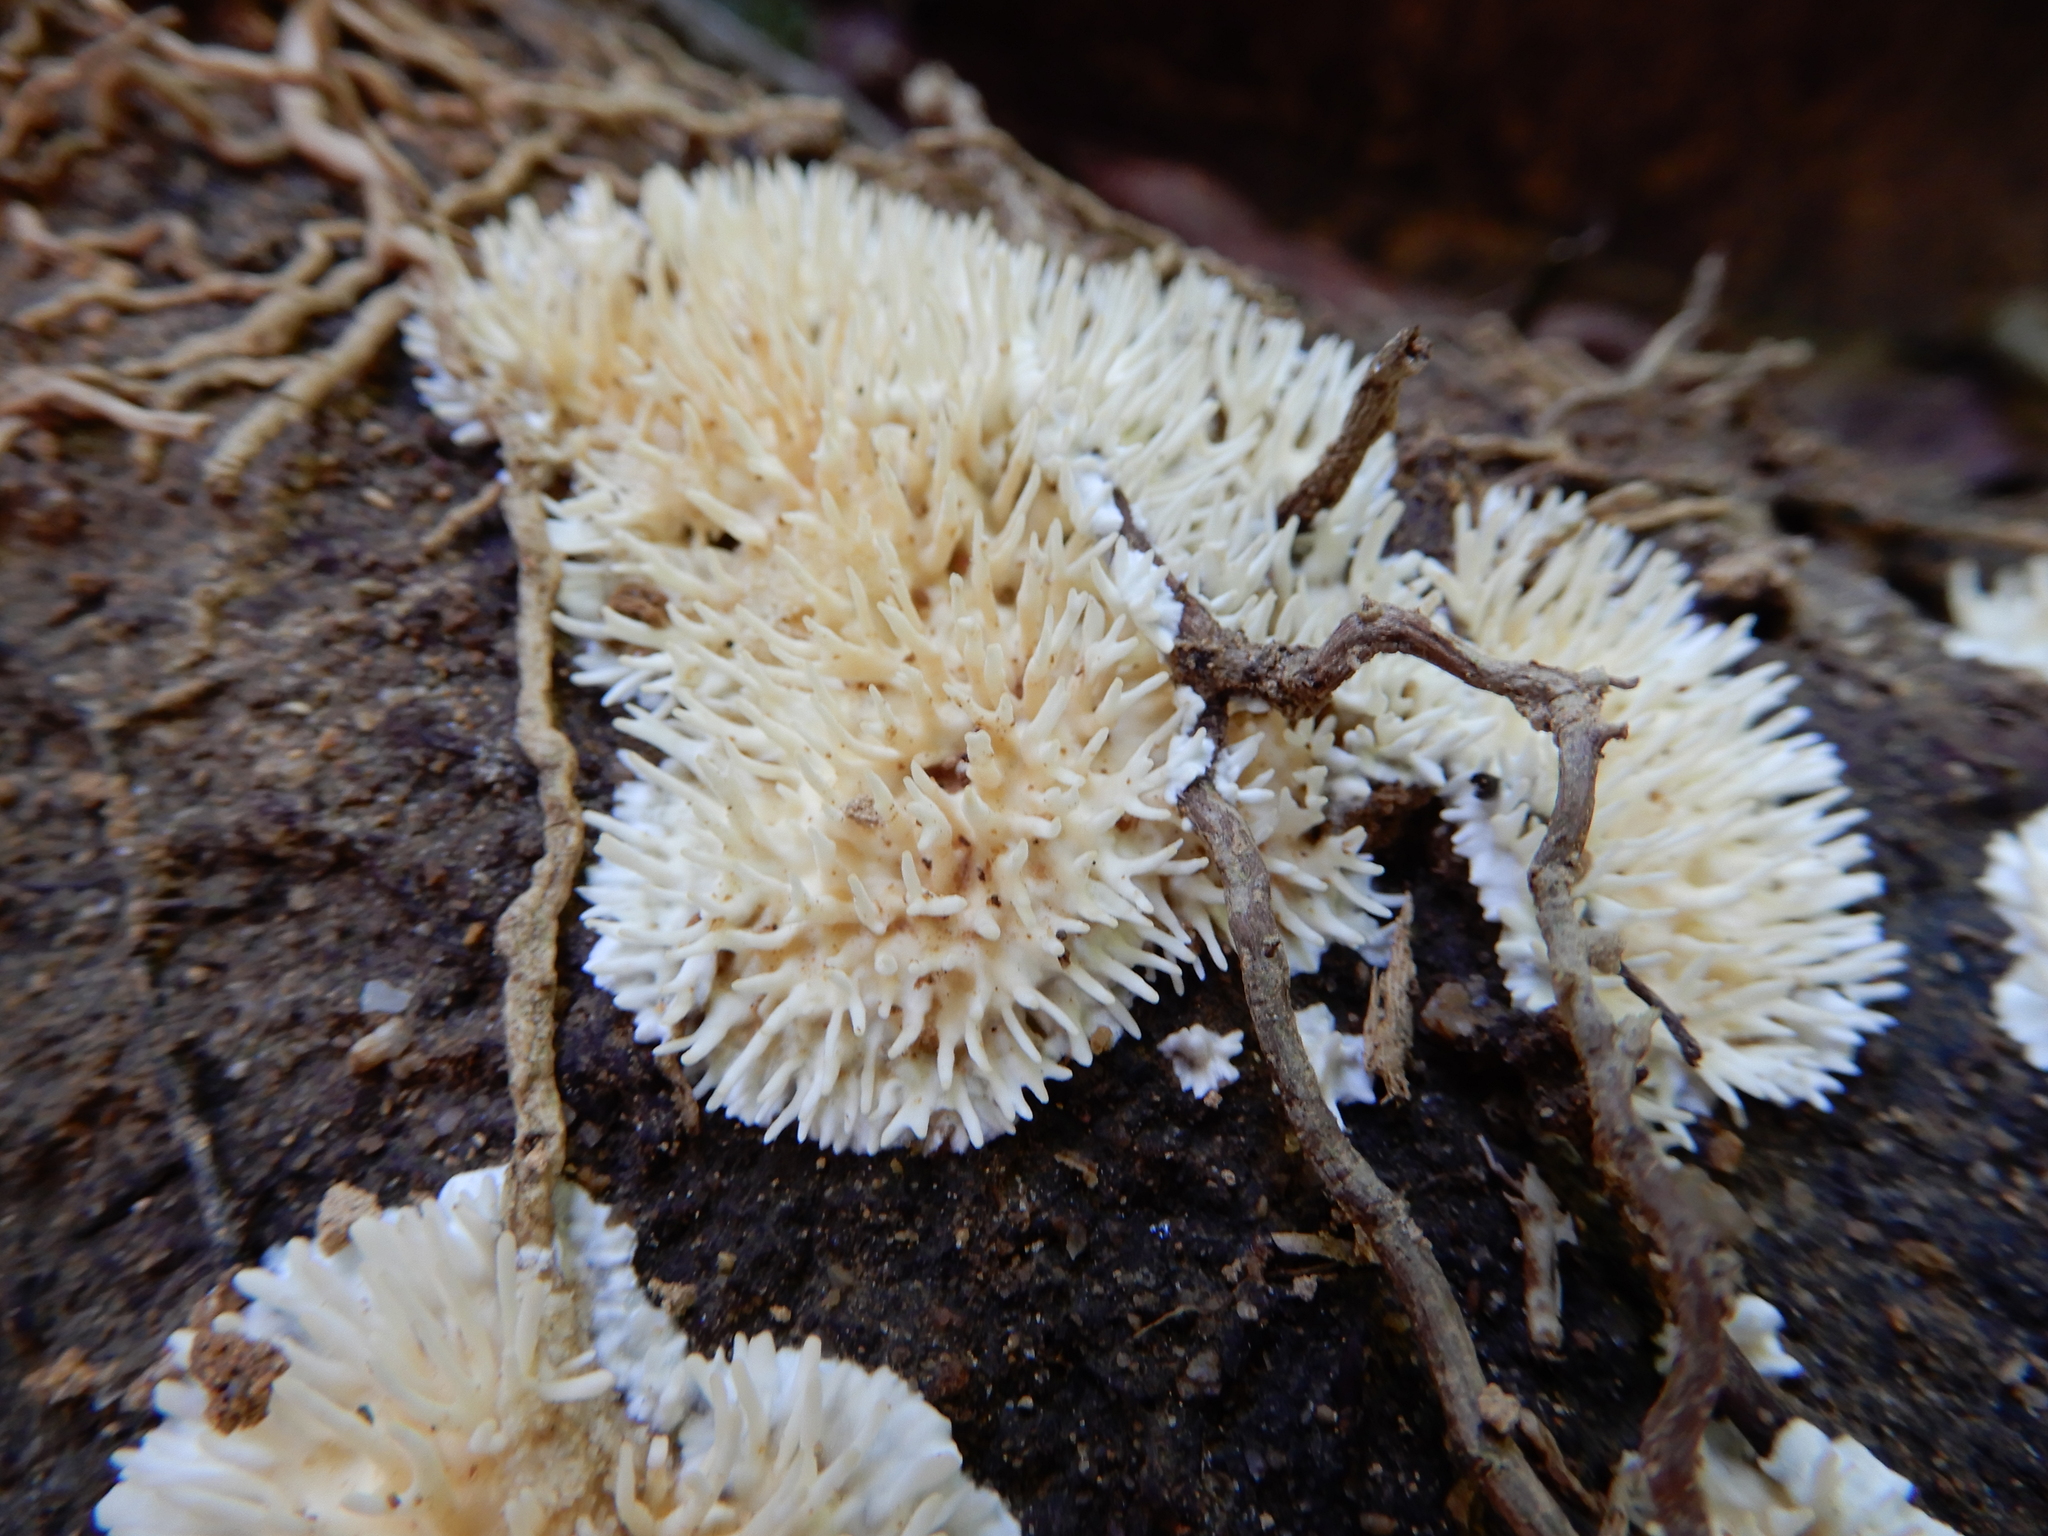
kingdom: Fungi
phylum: Basidiomycota
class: Agaricomycetes
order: Auriculariales
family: Auriculariaceae
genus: Elmerina
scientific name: Elmerina sclerodontia
